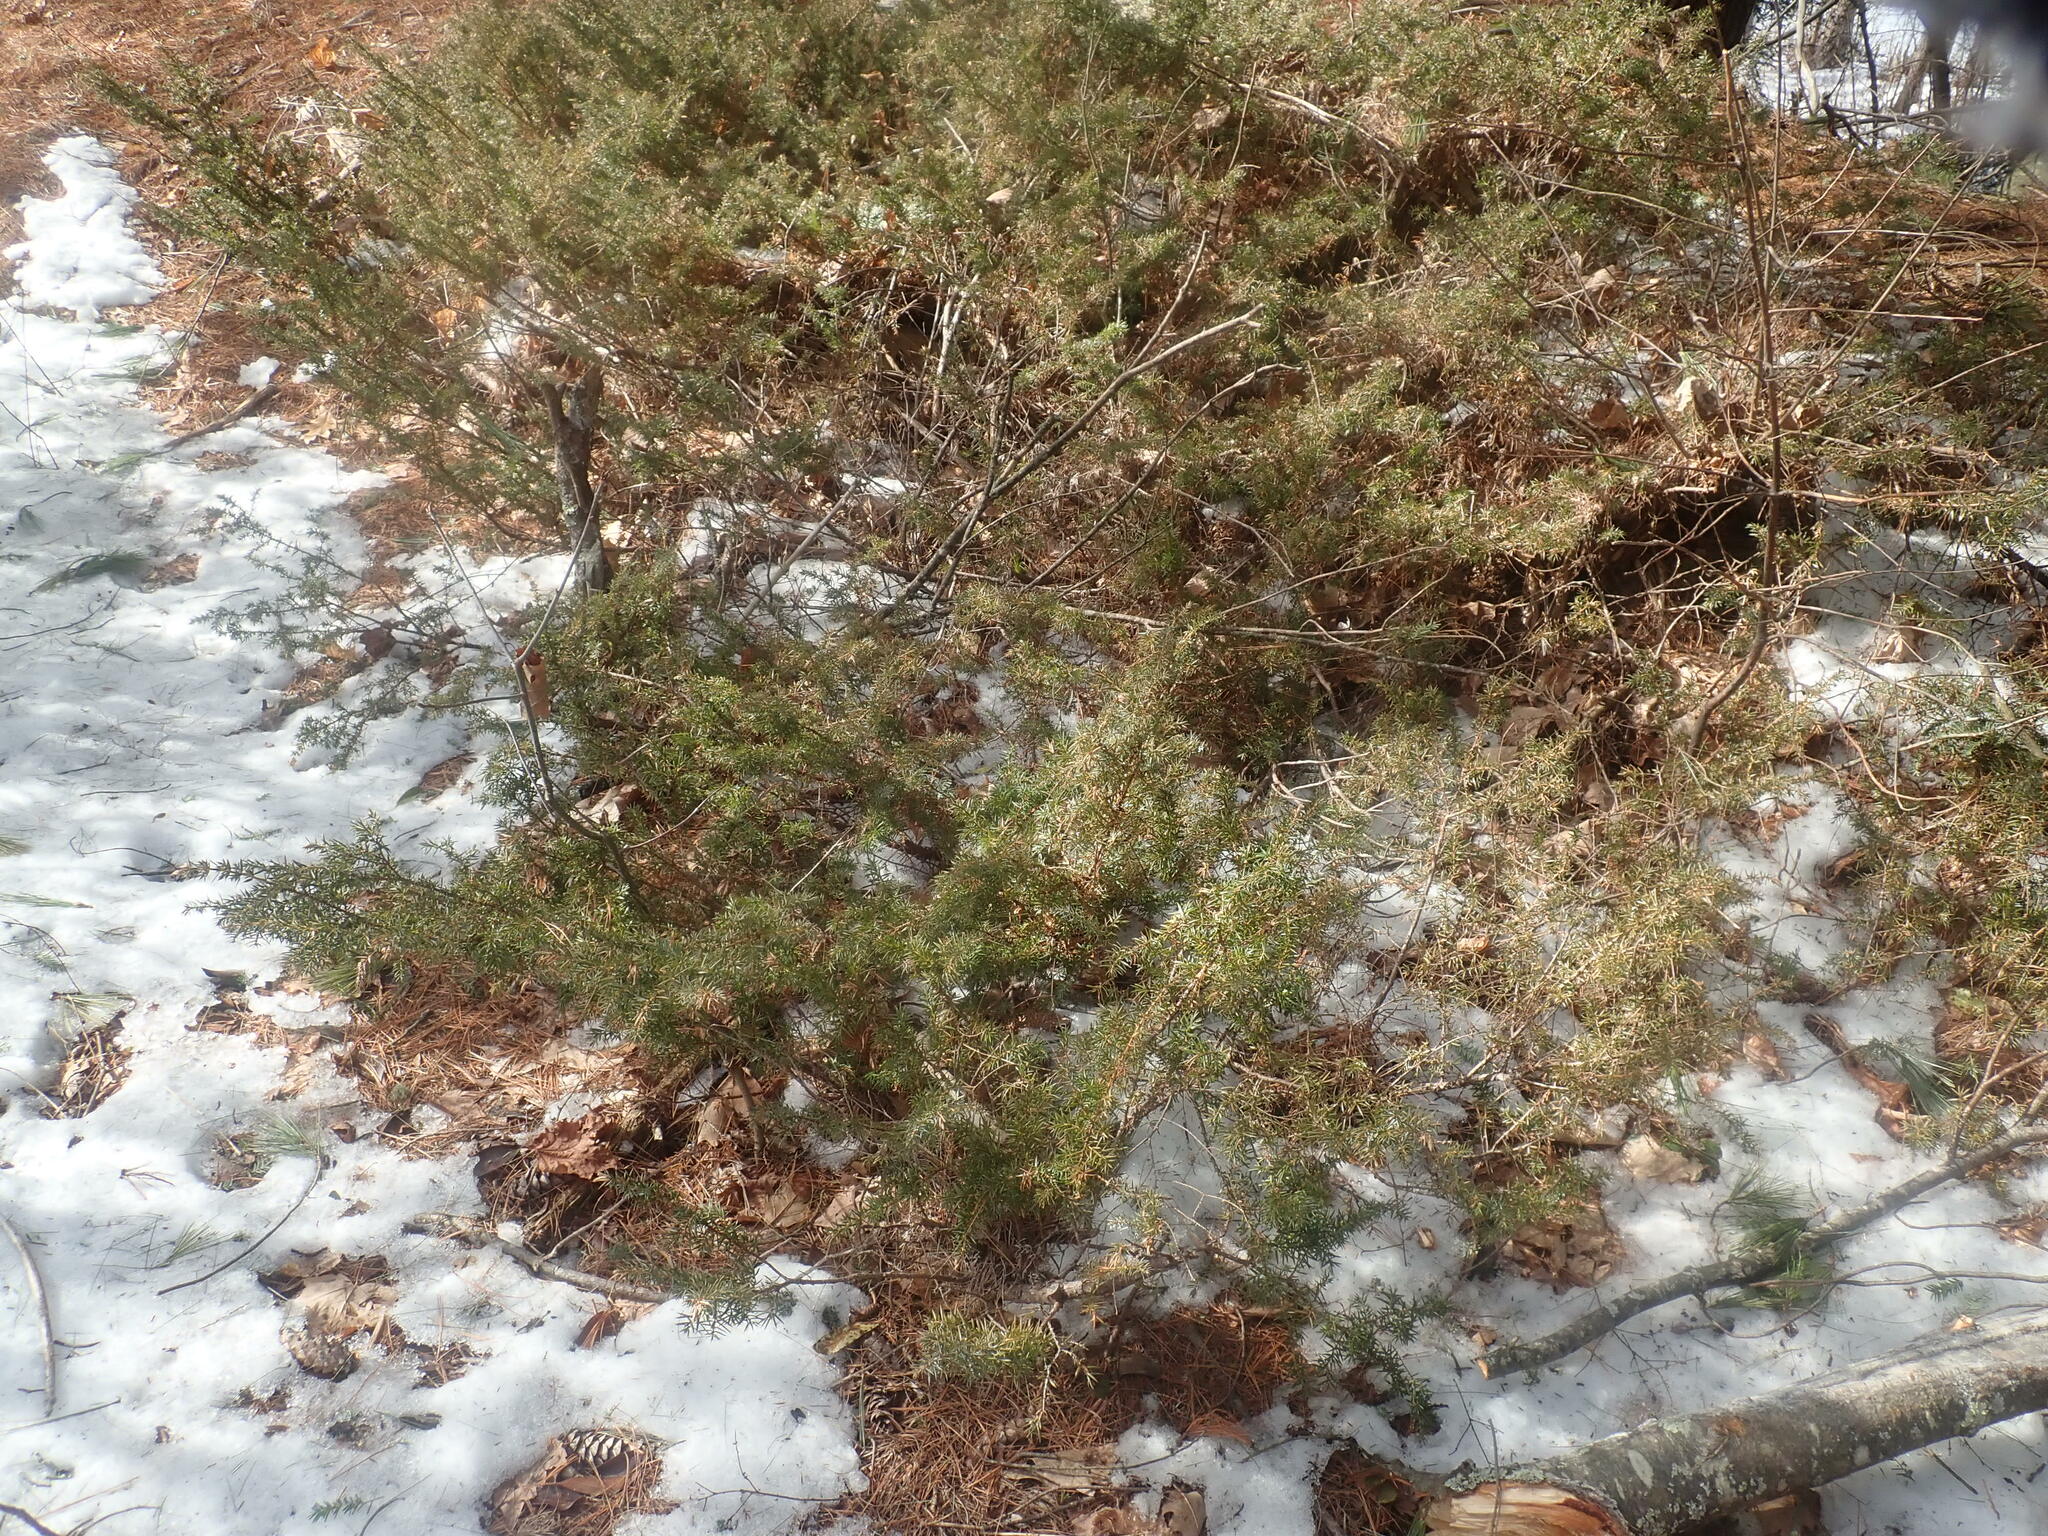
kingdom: Plantae
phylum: Tracheophyta
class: Pinopsida
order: Pinales
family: Cupressaceae
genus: Juniperus
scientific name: Juniperus communis
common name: Common juniper
